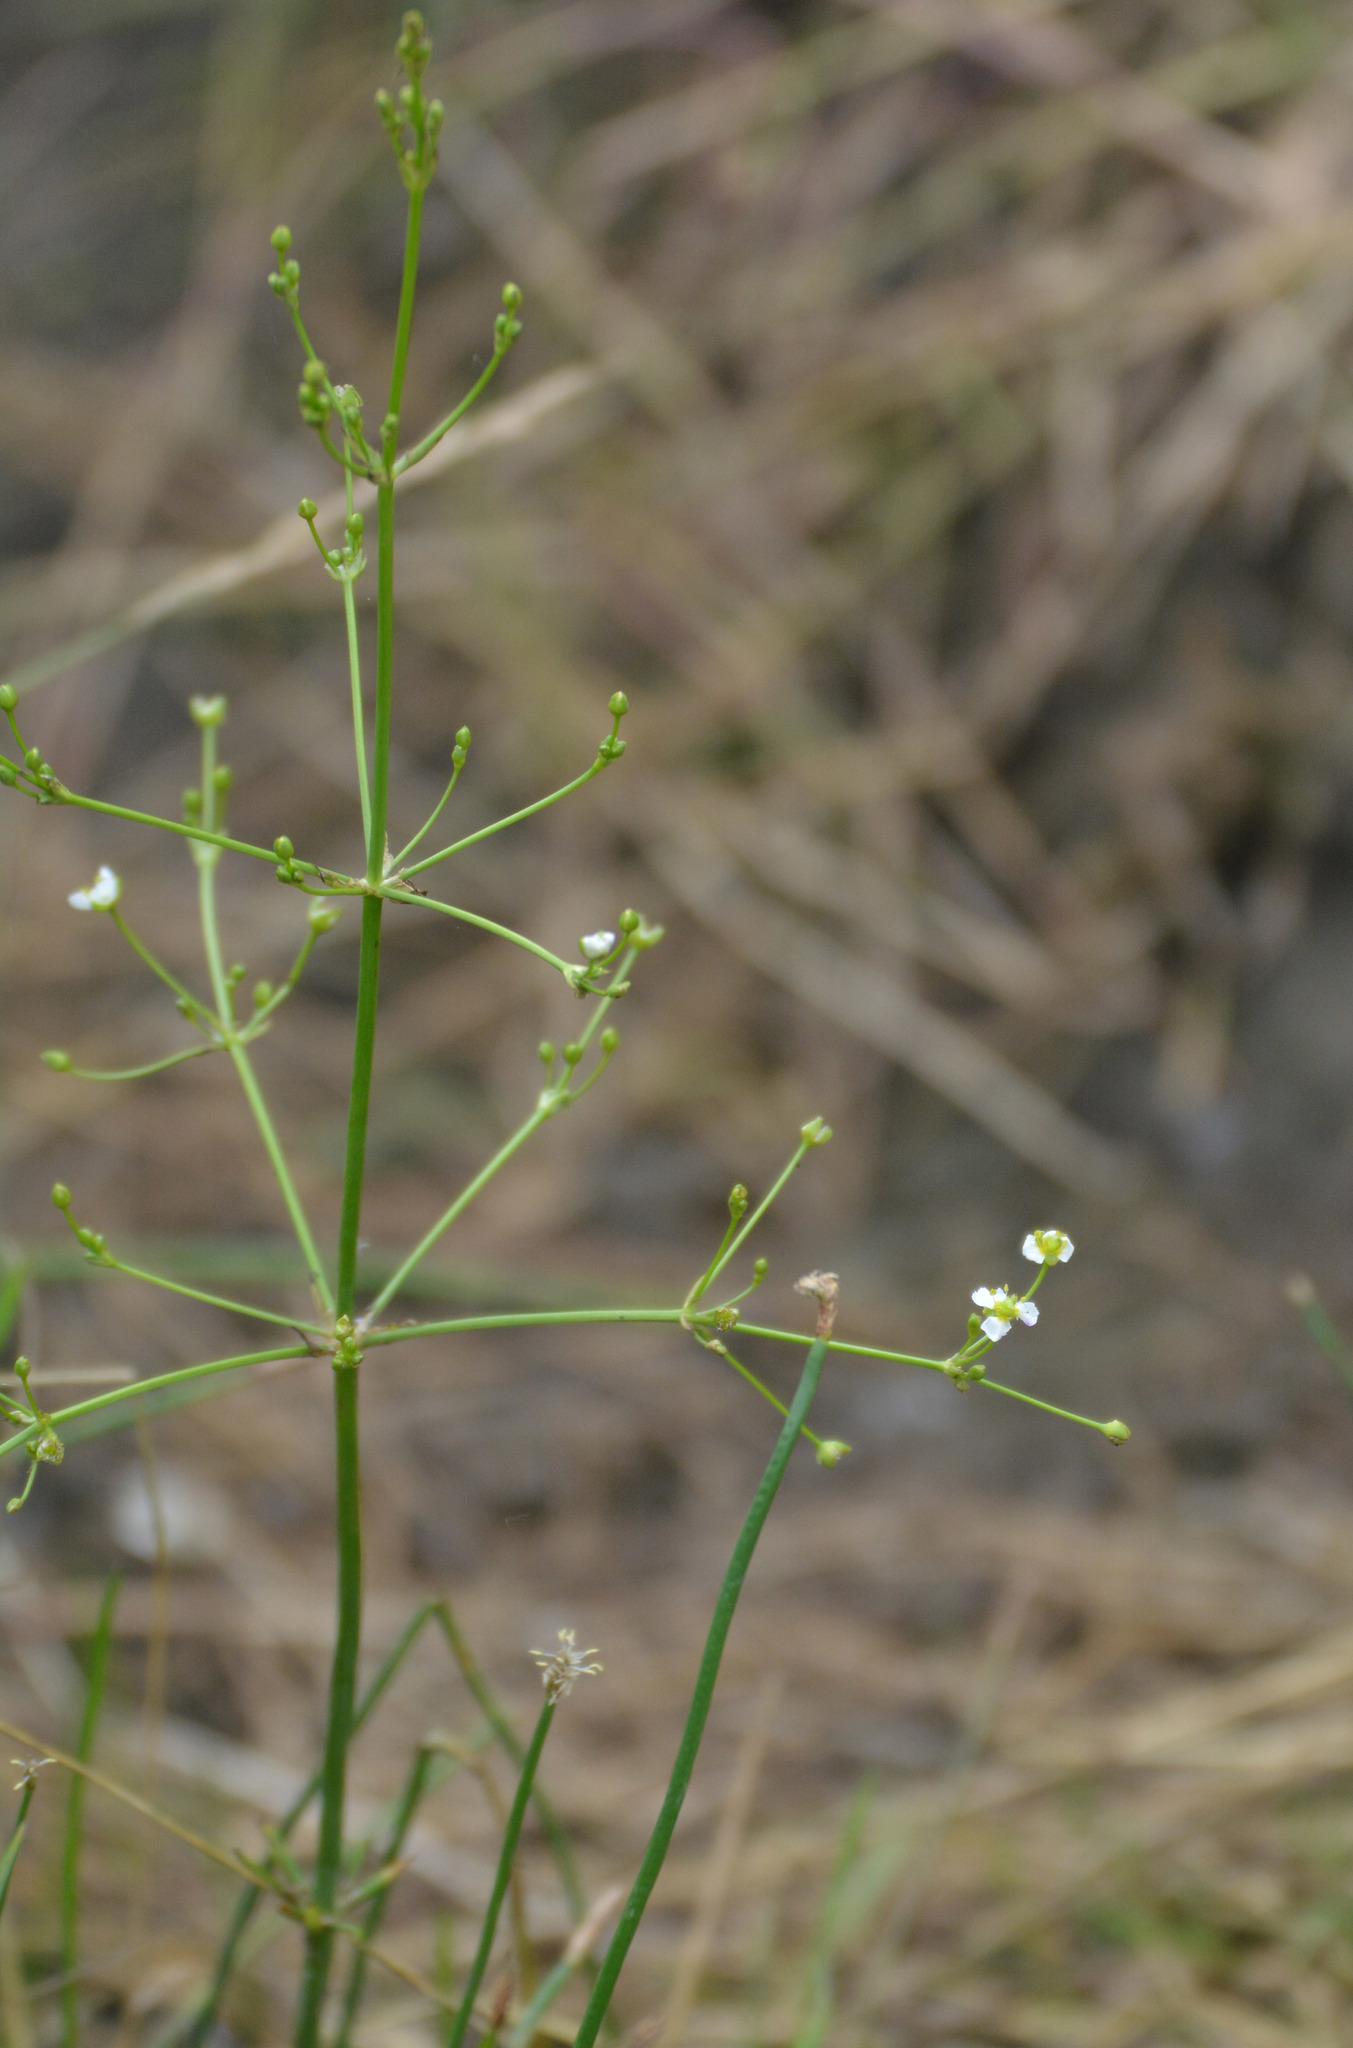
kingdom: Plantae
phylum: Tracheophyta
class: Liliopsida
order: Alismatales
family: Alismataceae
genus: Alisma
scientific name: Alisma plantago-aquatica
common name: Water-plantain
